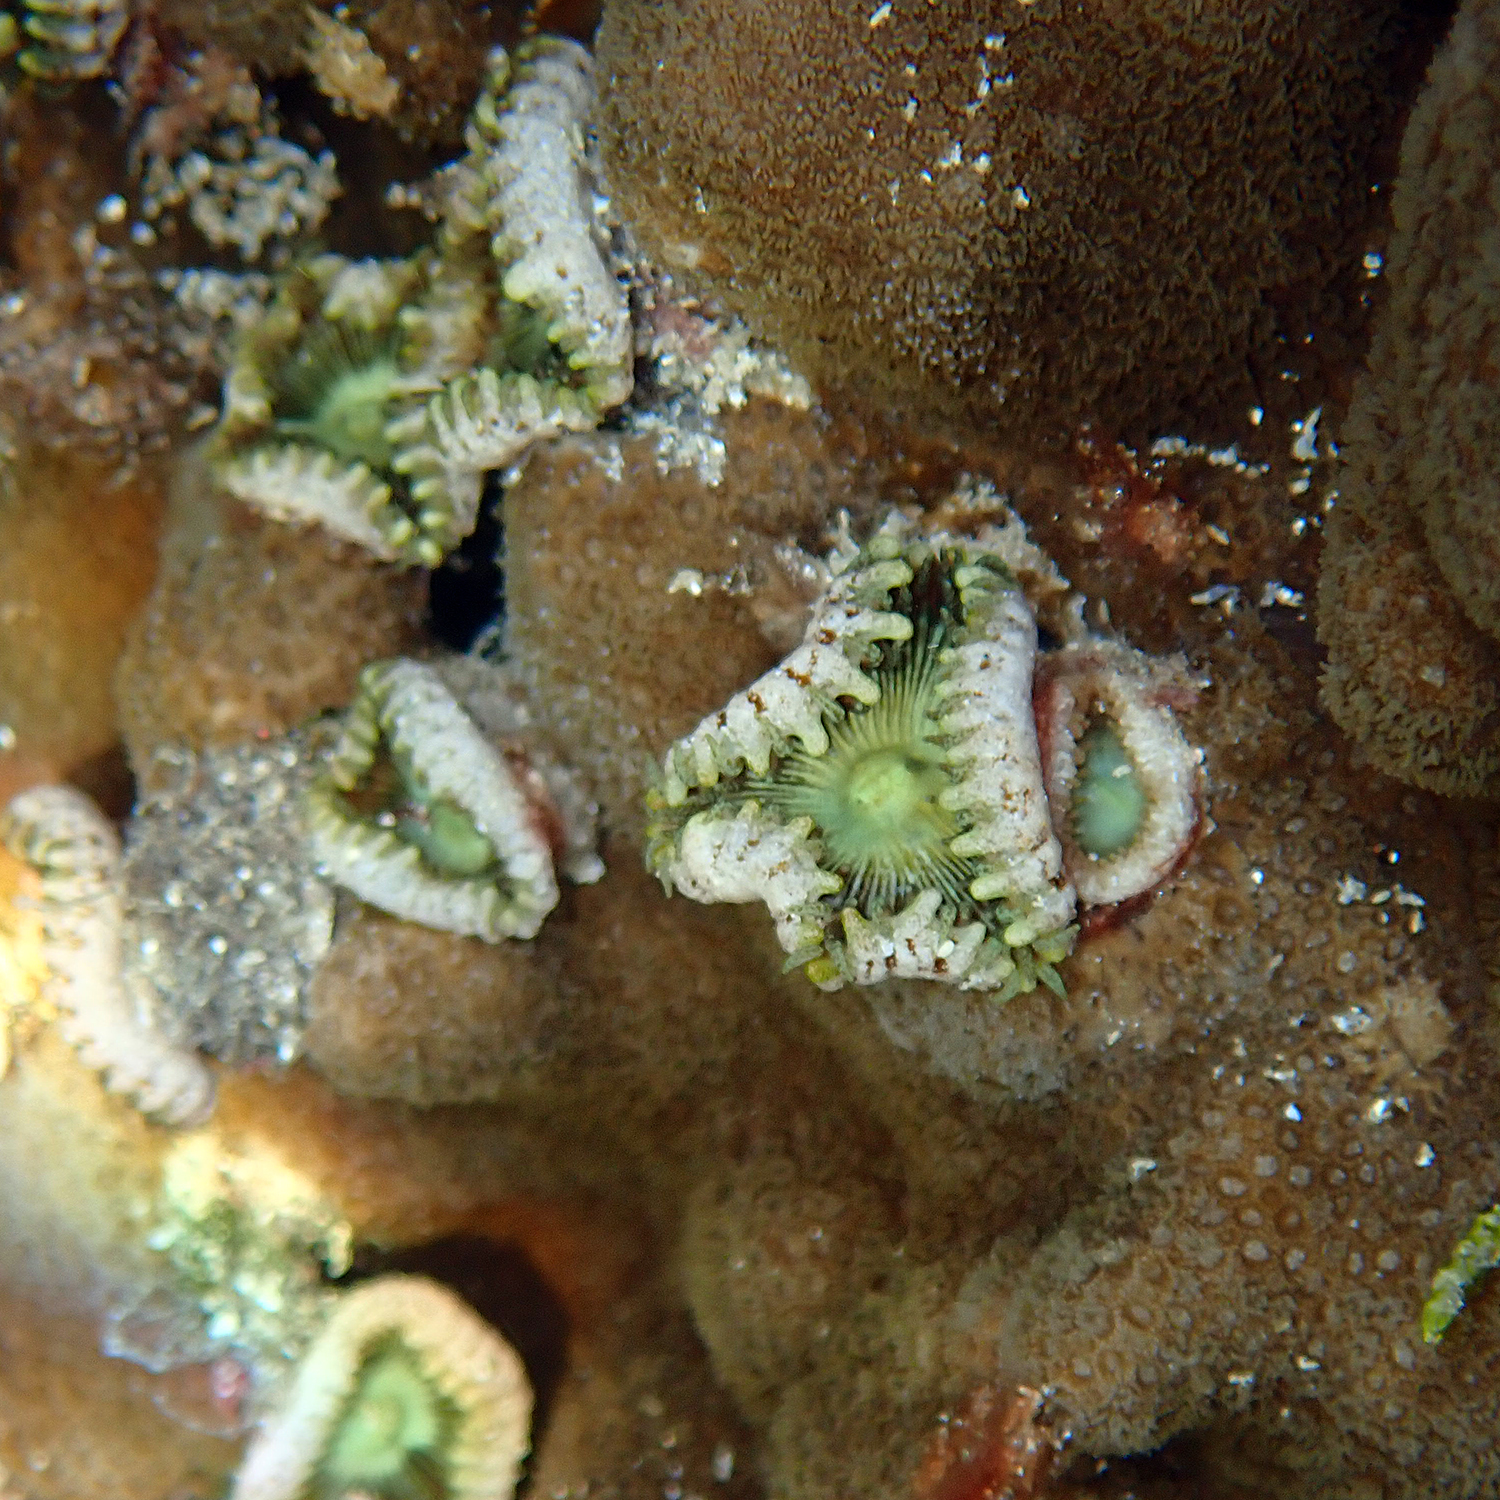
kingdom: Animalia
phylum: Cnidaria
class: Anthozoa
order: Zoantharia
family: Sphenopidae
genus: Palythoa
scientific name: Palythoa mutuki
